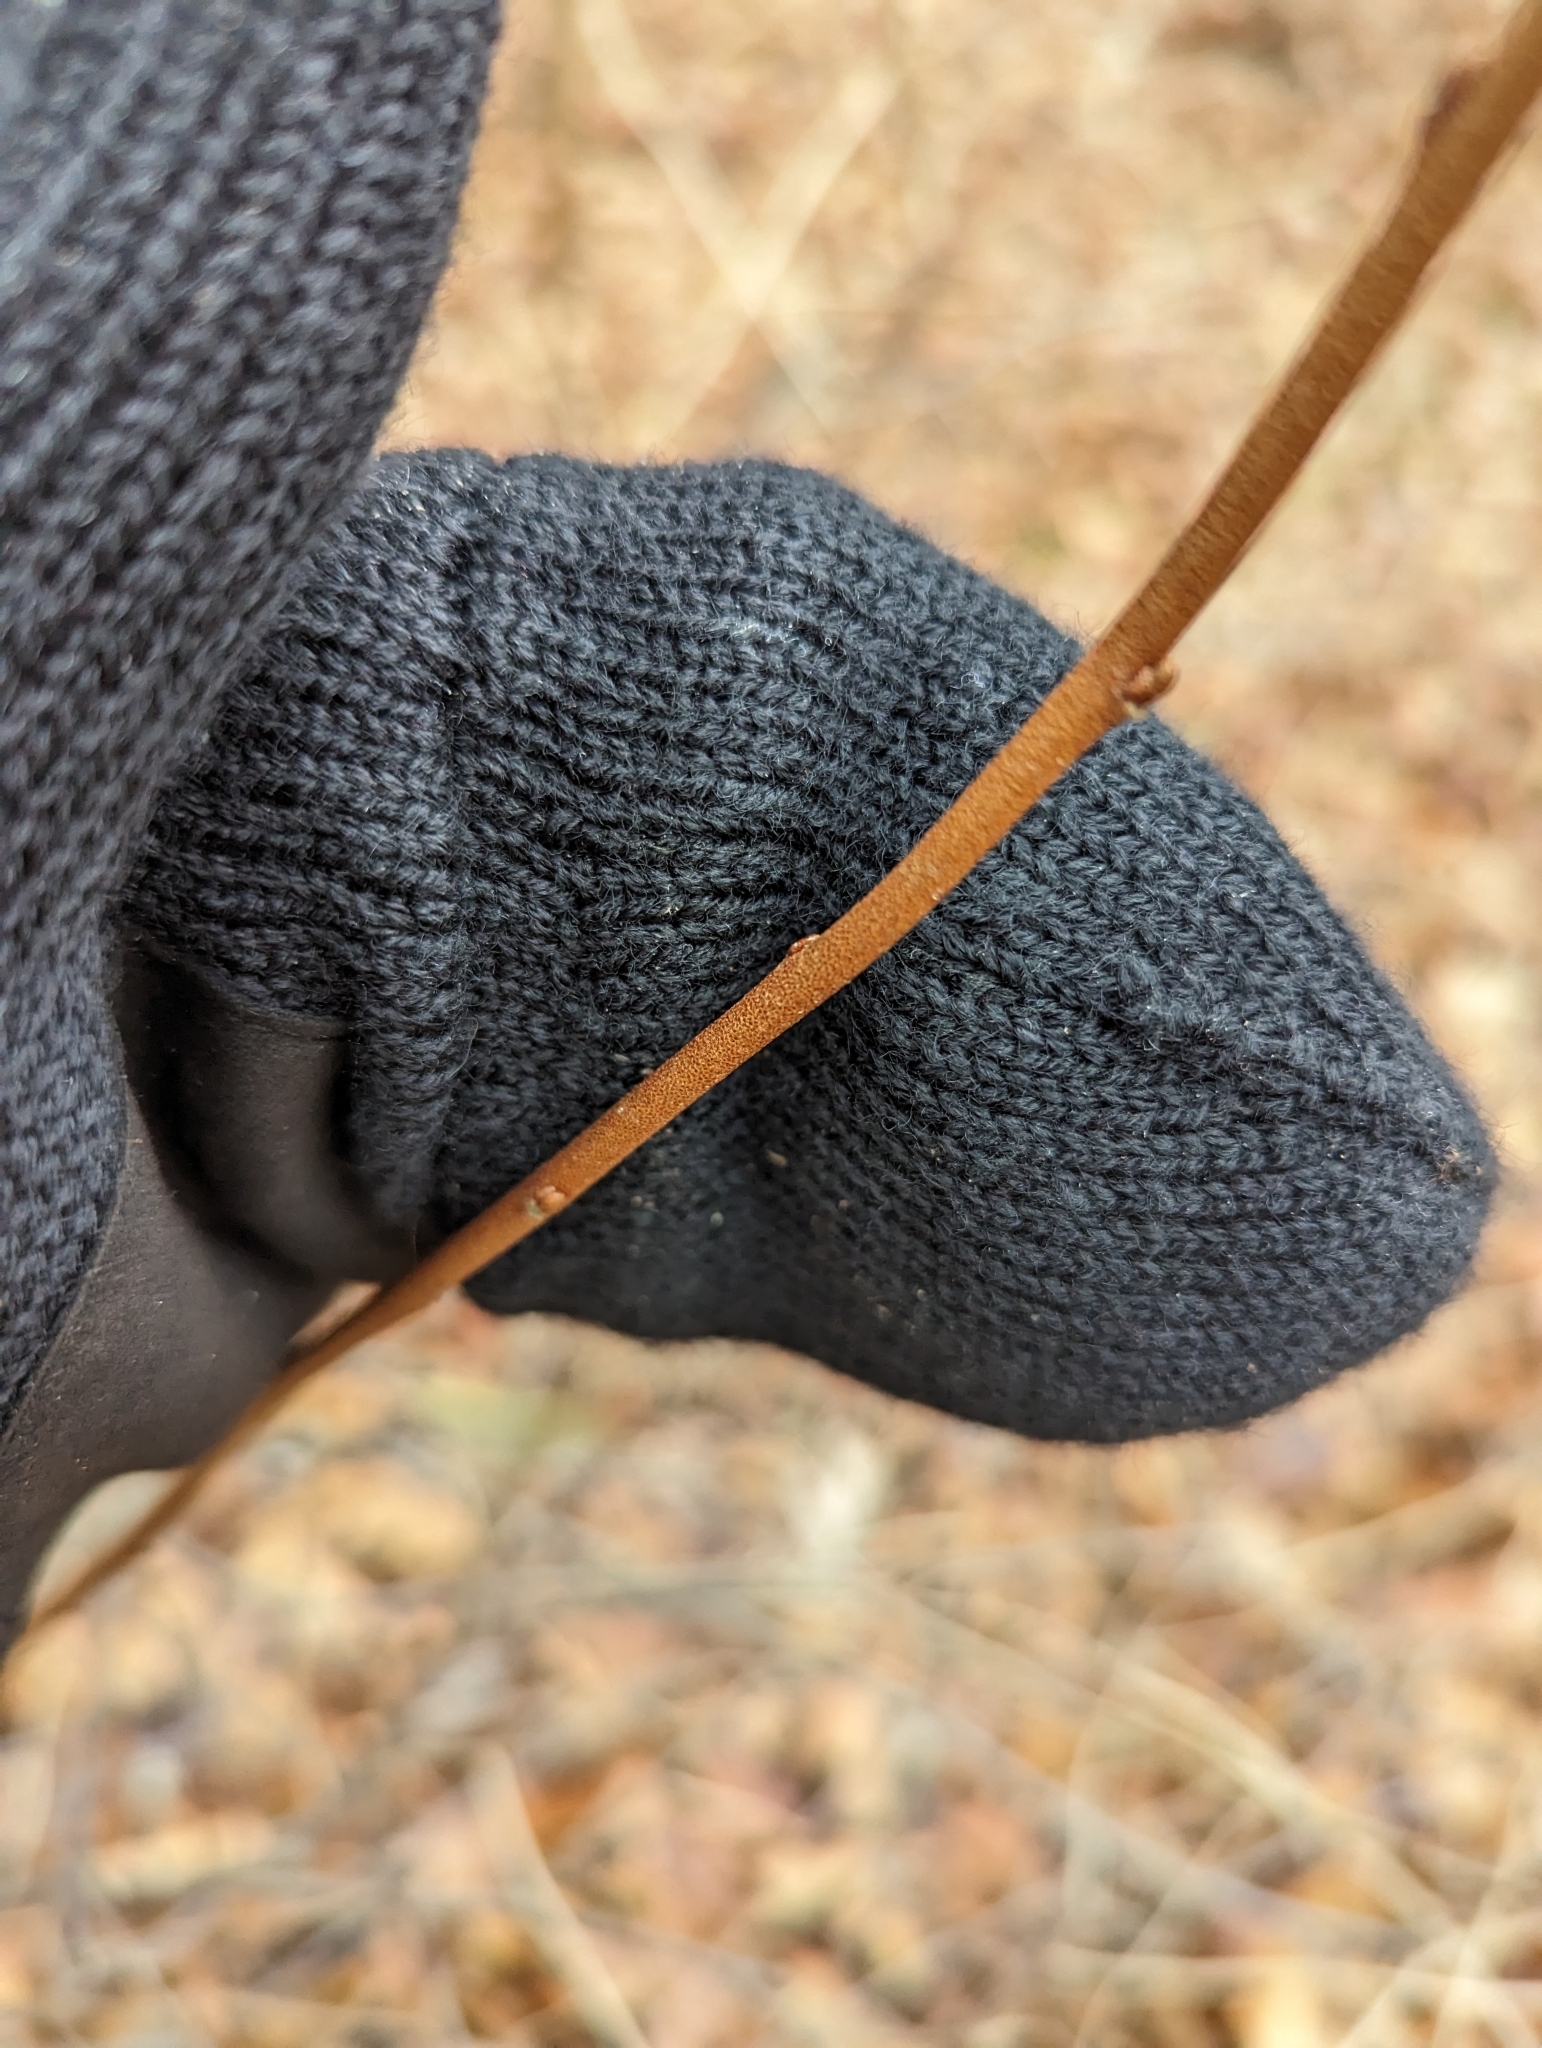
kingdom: Plantae
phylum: Tracheophyta
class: Magnoliopsida
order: Rosales
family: Elaeagnaceae
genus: Elaeagnus
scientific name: Elaeagnus umbellata
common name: Autumn olive
